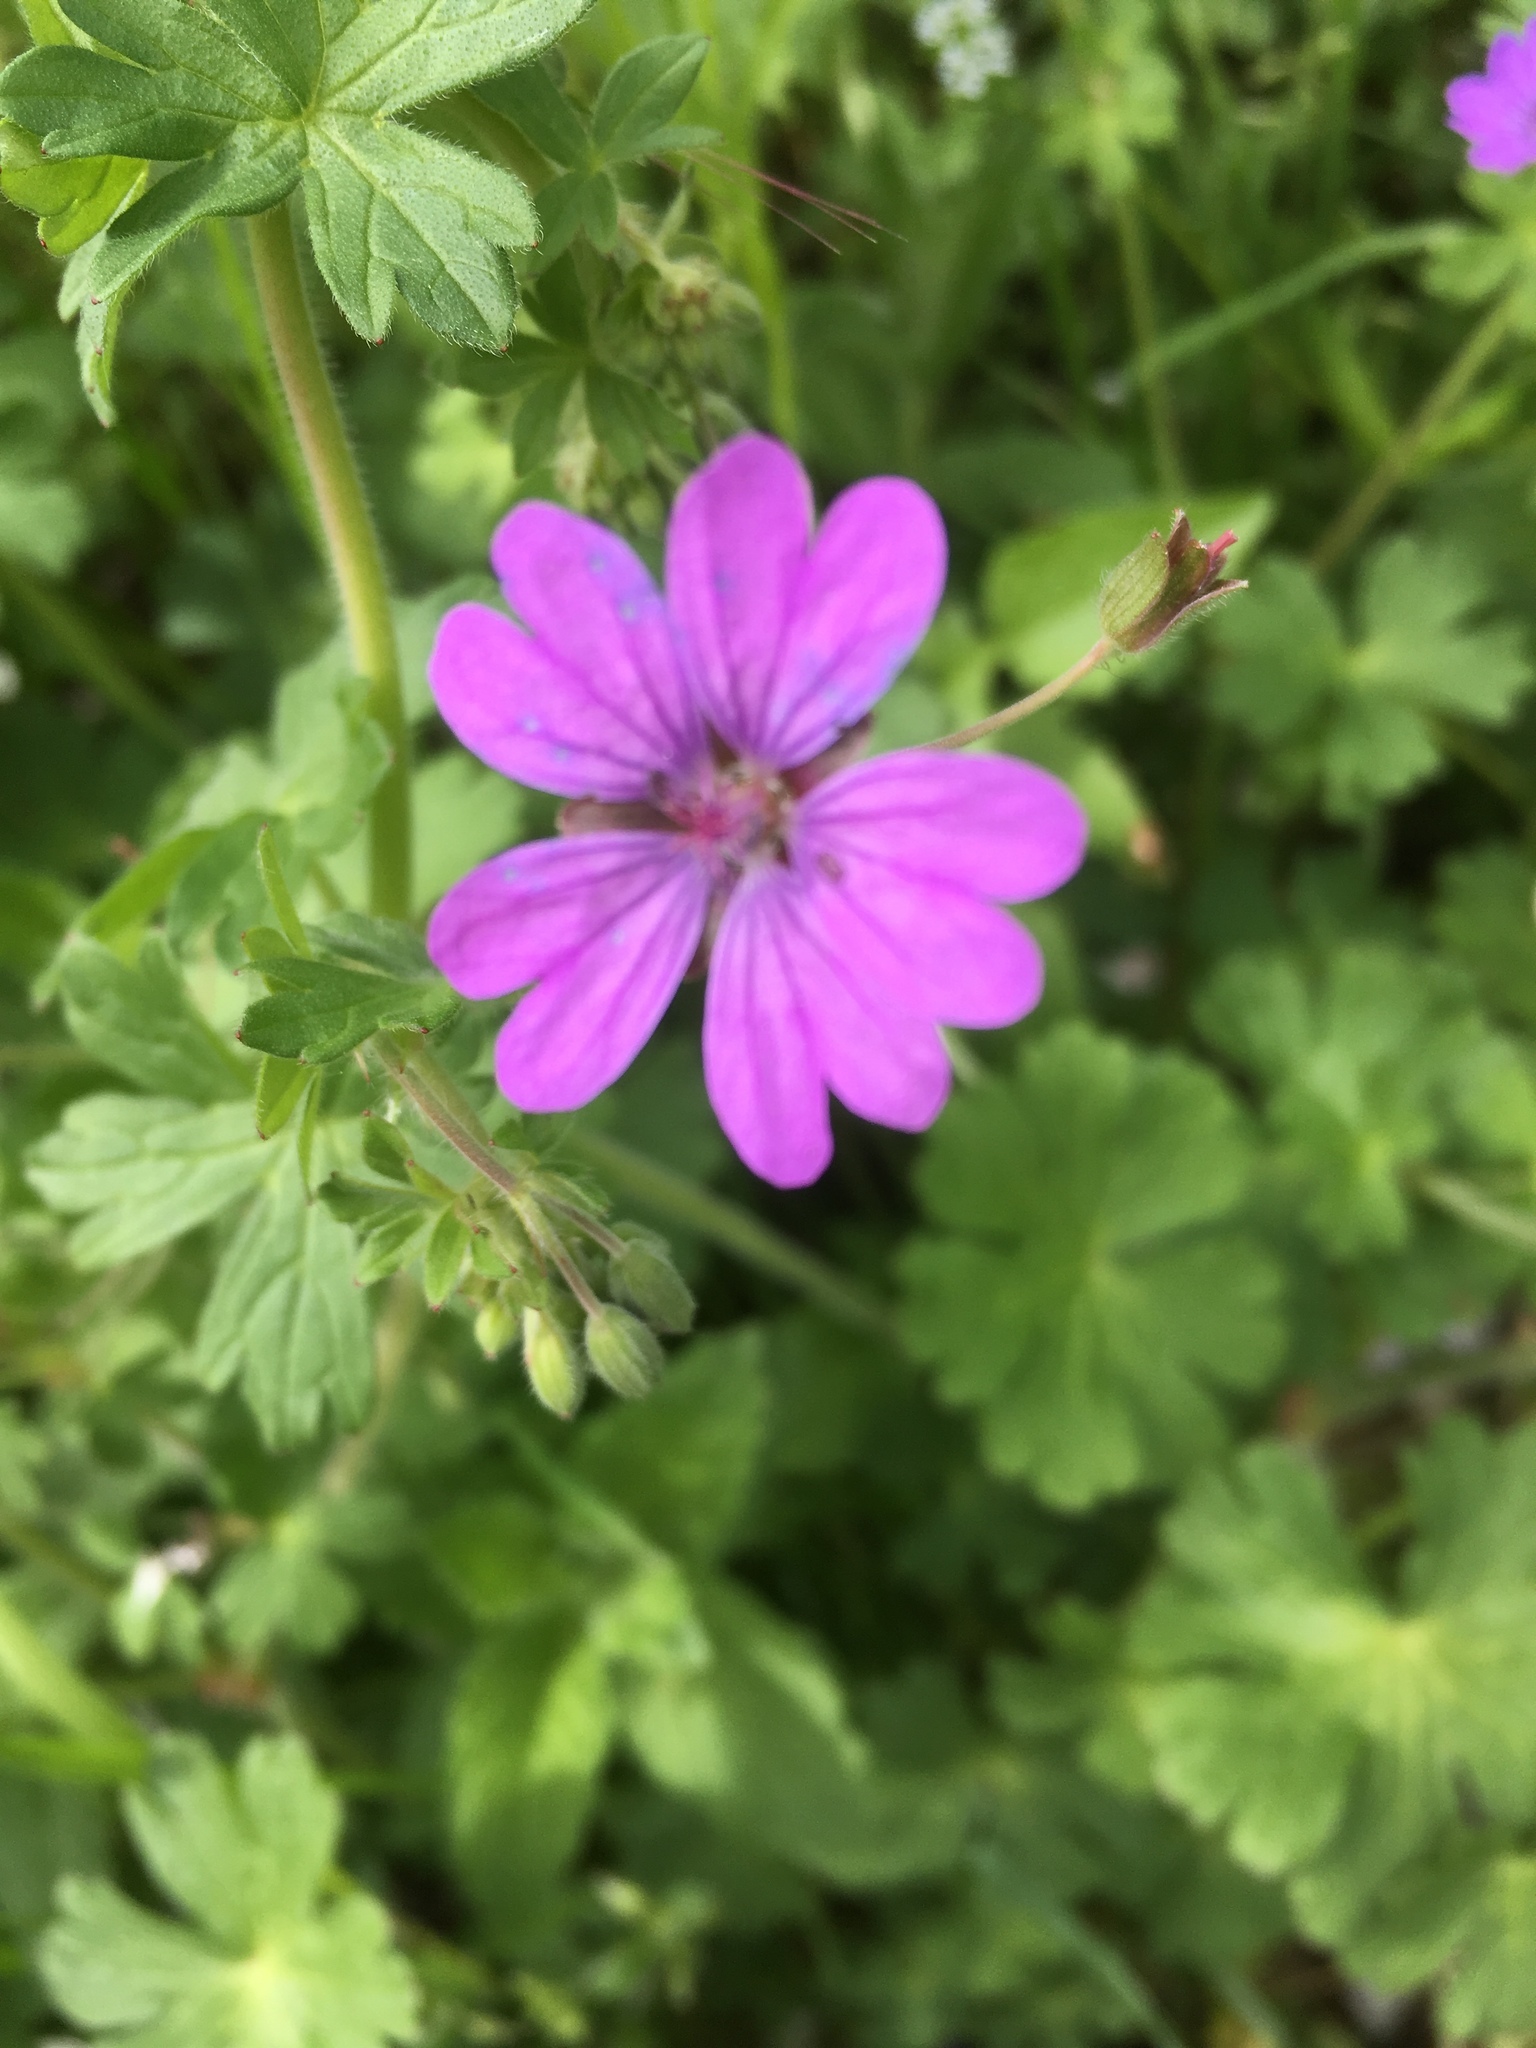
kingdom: Plantae
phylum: Tracheophyta
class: Magnoliopsida
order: Geraniales
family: Geraniaceae
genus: Geranium
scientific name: Geranium molle
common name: Dove's-foot crane's-bill
